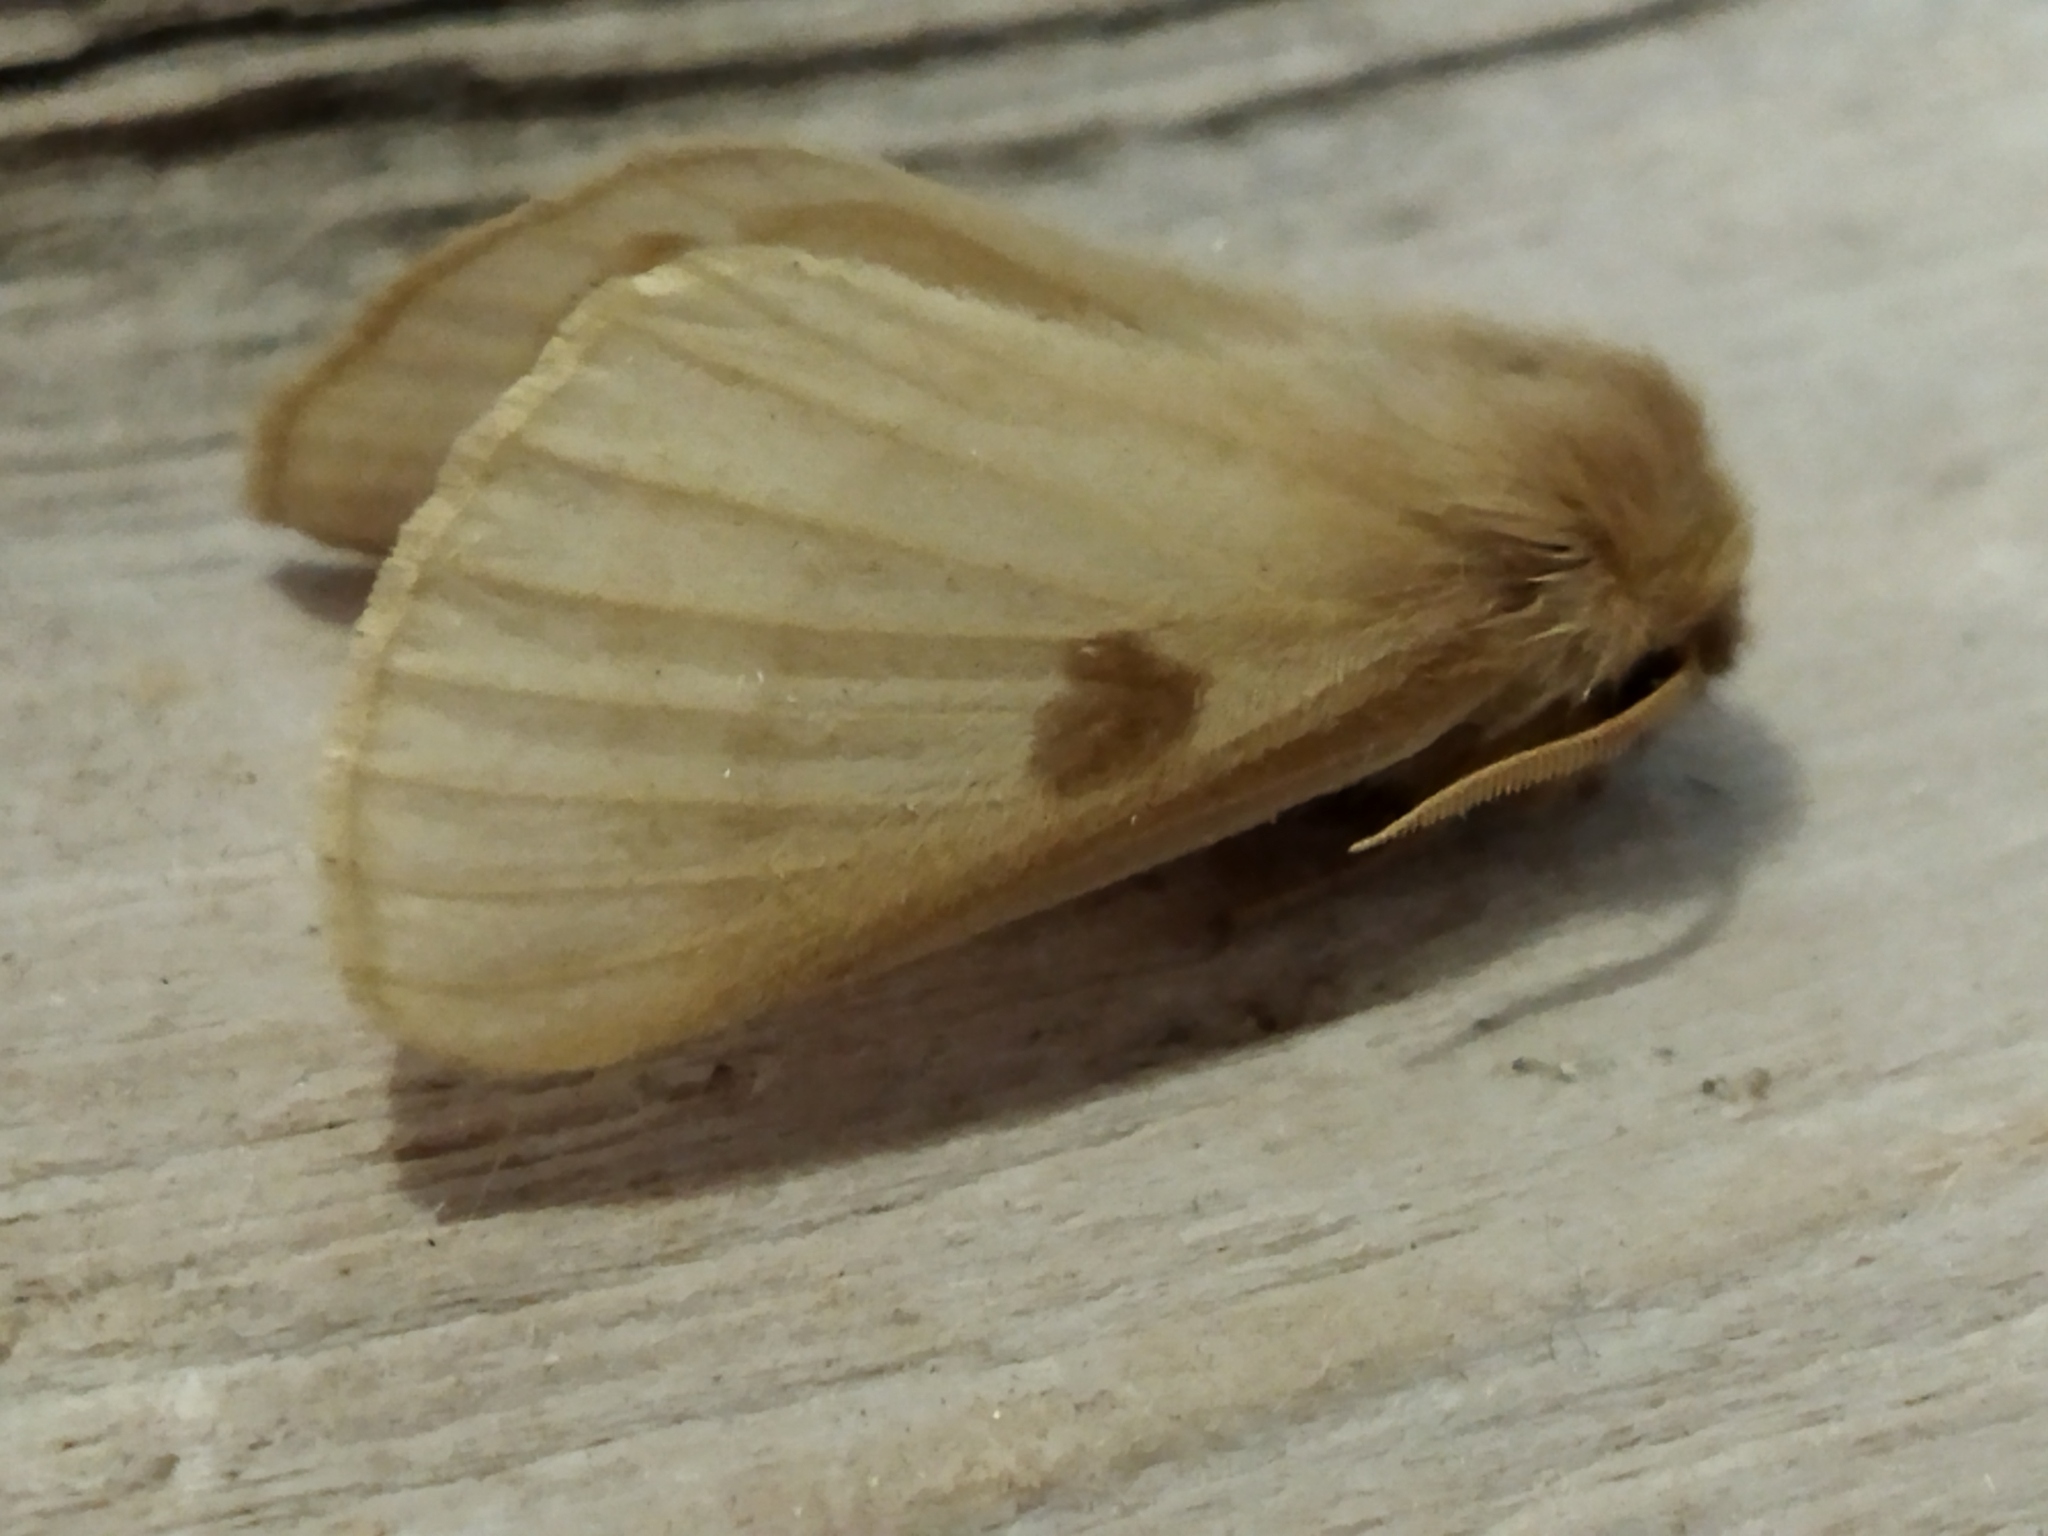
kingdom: Animalia
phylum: Arthropoda
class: Insecta
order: Lepidoptera
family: Brahmaeidae
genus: Lemonia
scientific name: Lemonia balcanica
